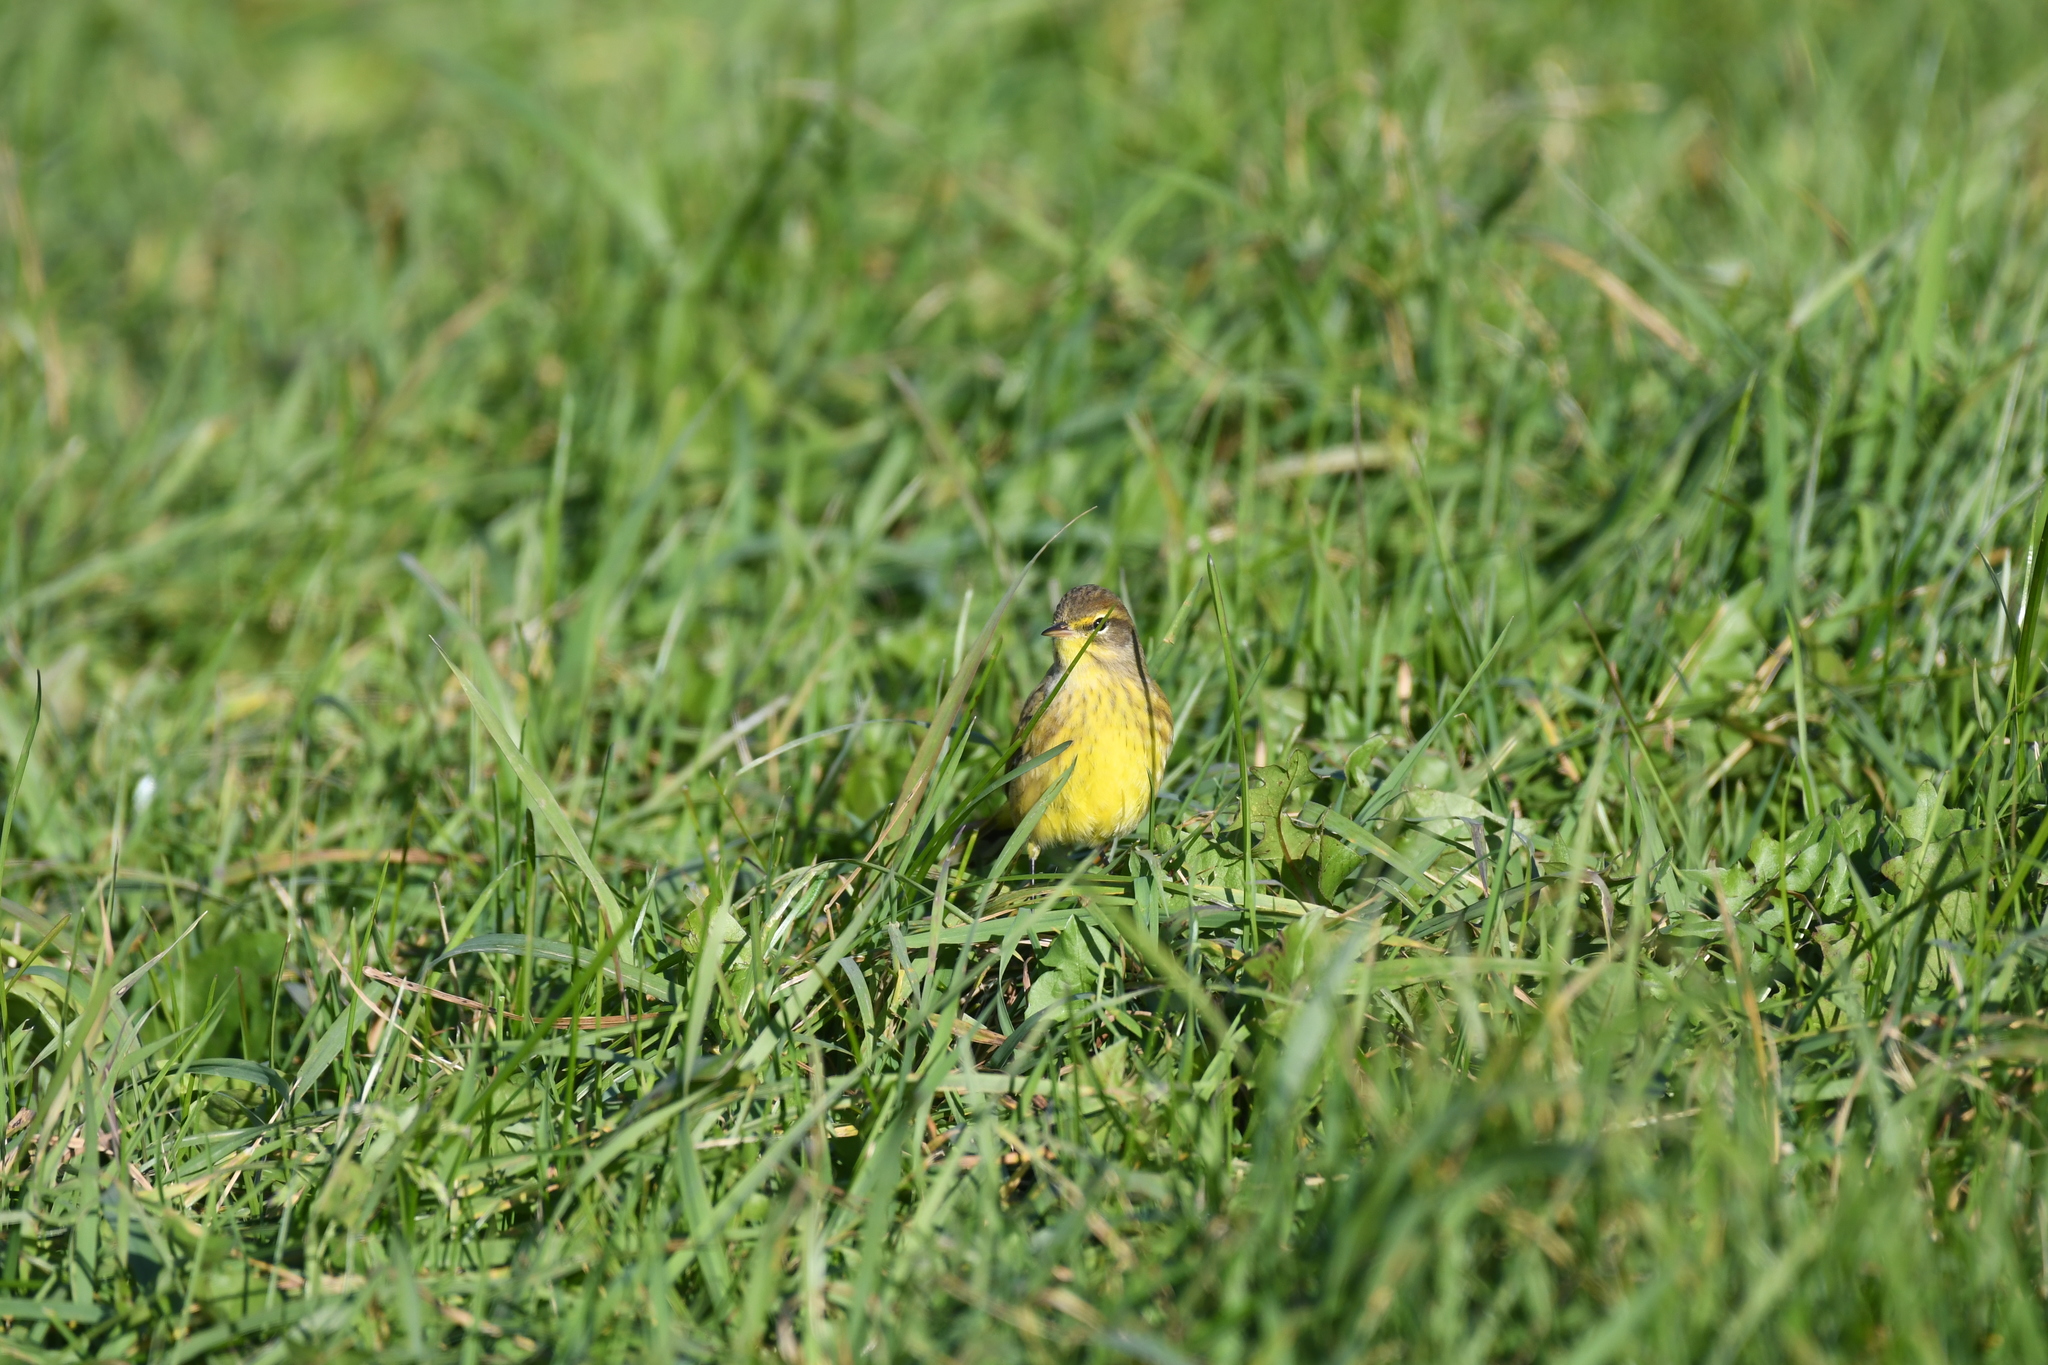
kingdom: Animalia
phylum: Chordata
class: Aves
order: Passeriformes
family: Parulidae
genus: Setophaga
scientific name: Setophaga palmarum
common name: Palm warbler
